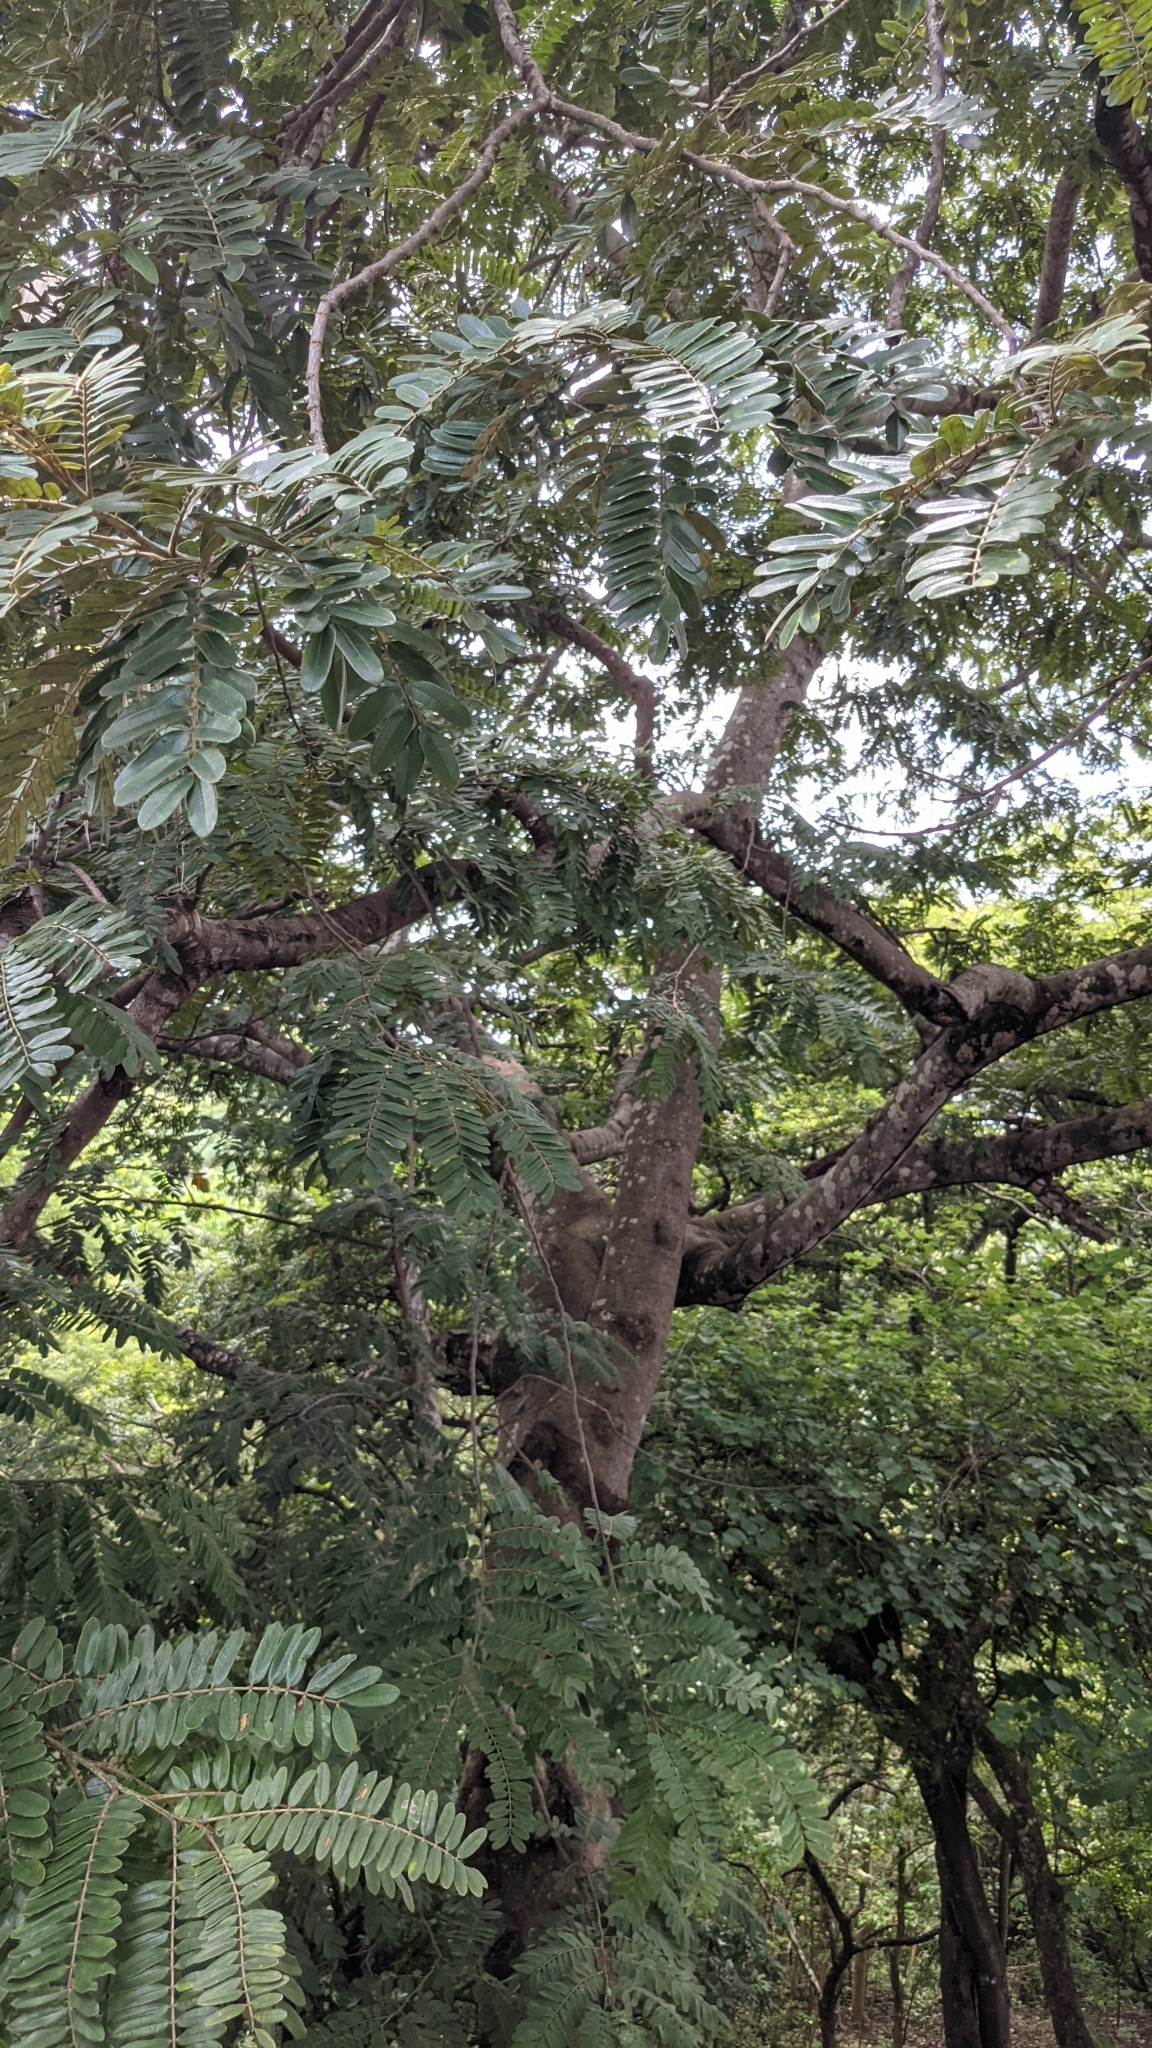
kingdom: Plantae
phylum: Tracheophyta
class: Magnoliopsida
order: Fabales
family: Fabaceae
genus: Cassia
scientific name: Cassia grandis
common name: Appleblossom cassia
